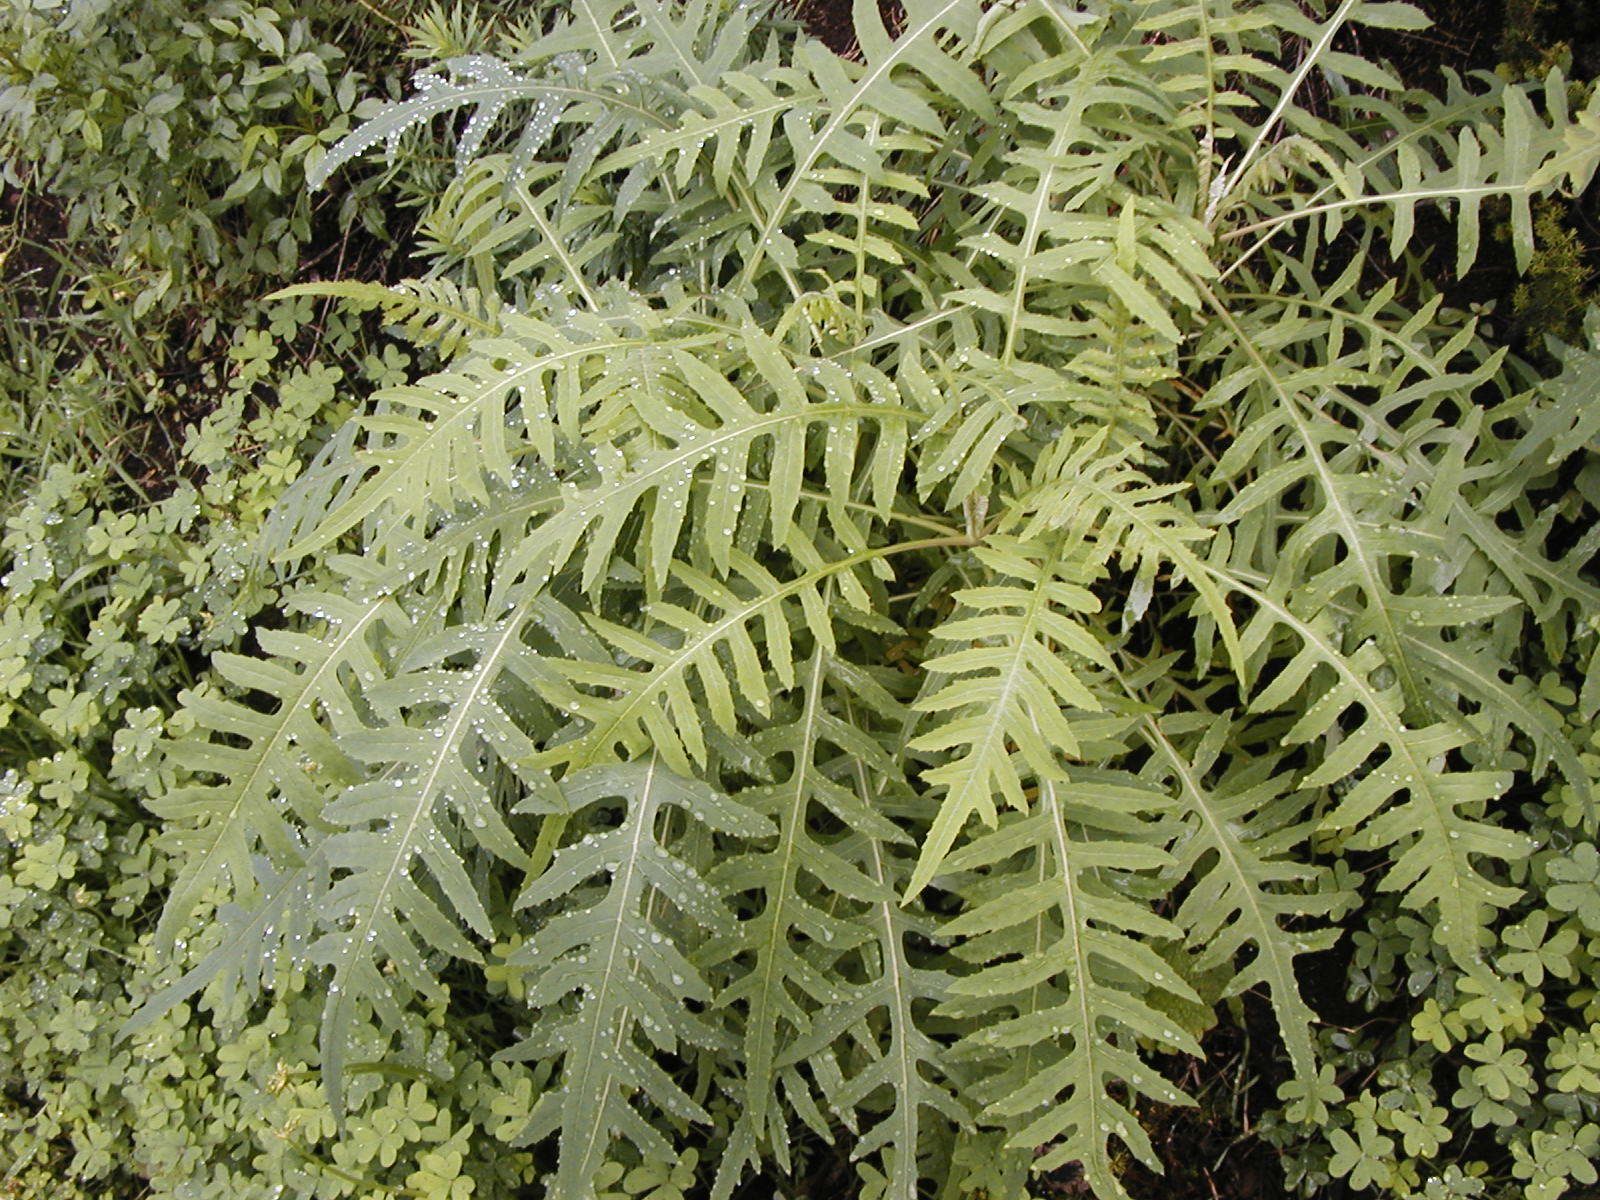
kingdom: Plantae
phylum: Tracheophyta
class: Magnoliopsida
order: Asterales
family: Asteraceae
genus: Sonchus
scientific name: Sonchus palmensis
